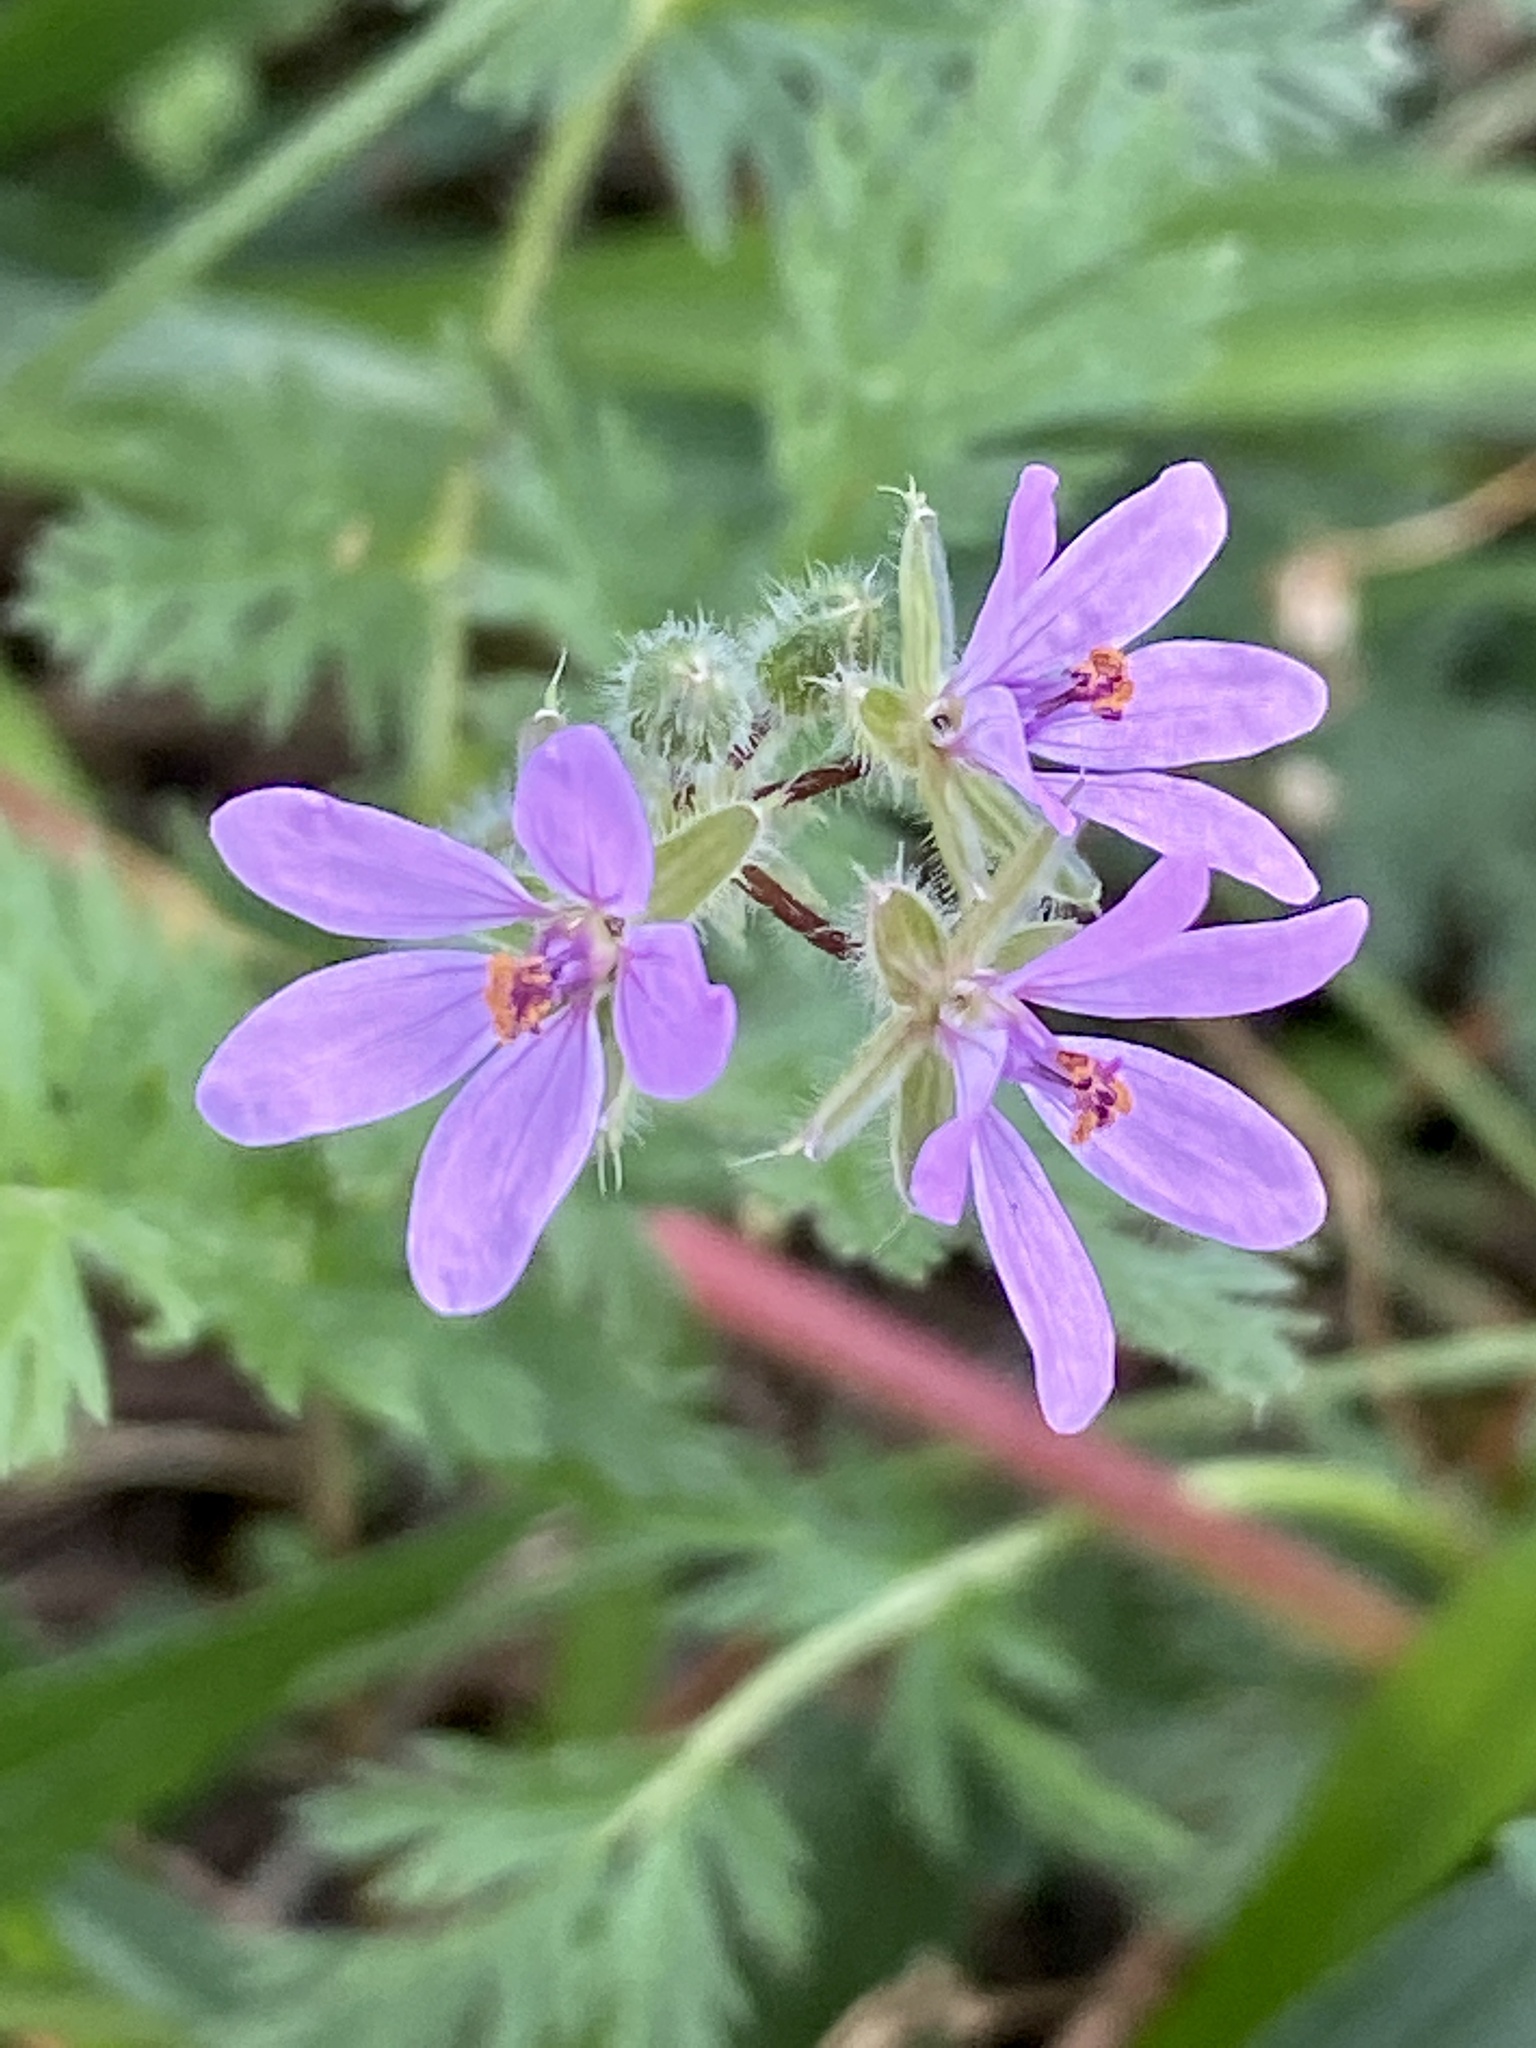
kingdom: Plantae
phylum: Tracheophyta
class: Magnoliopsida
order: Geraniales
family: Geraniaceae
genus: Erodium
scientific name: Erodium cicutarium
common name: Common stork's-bill
